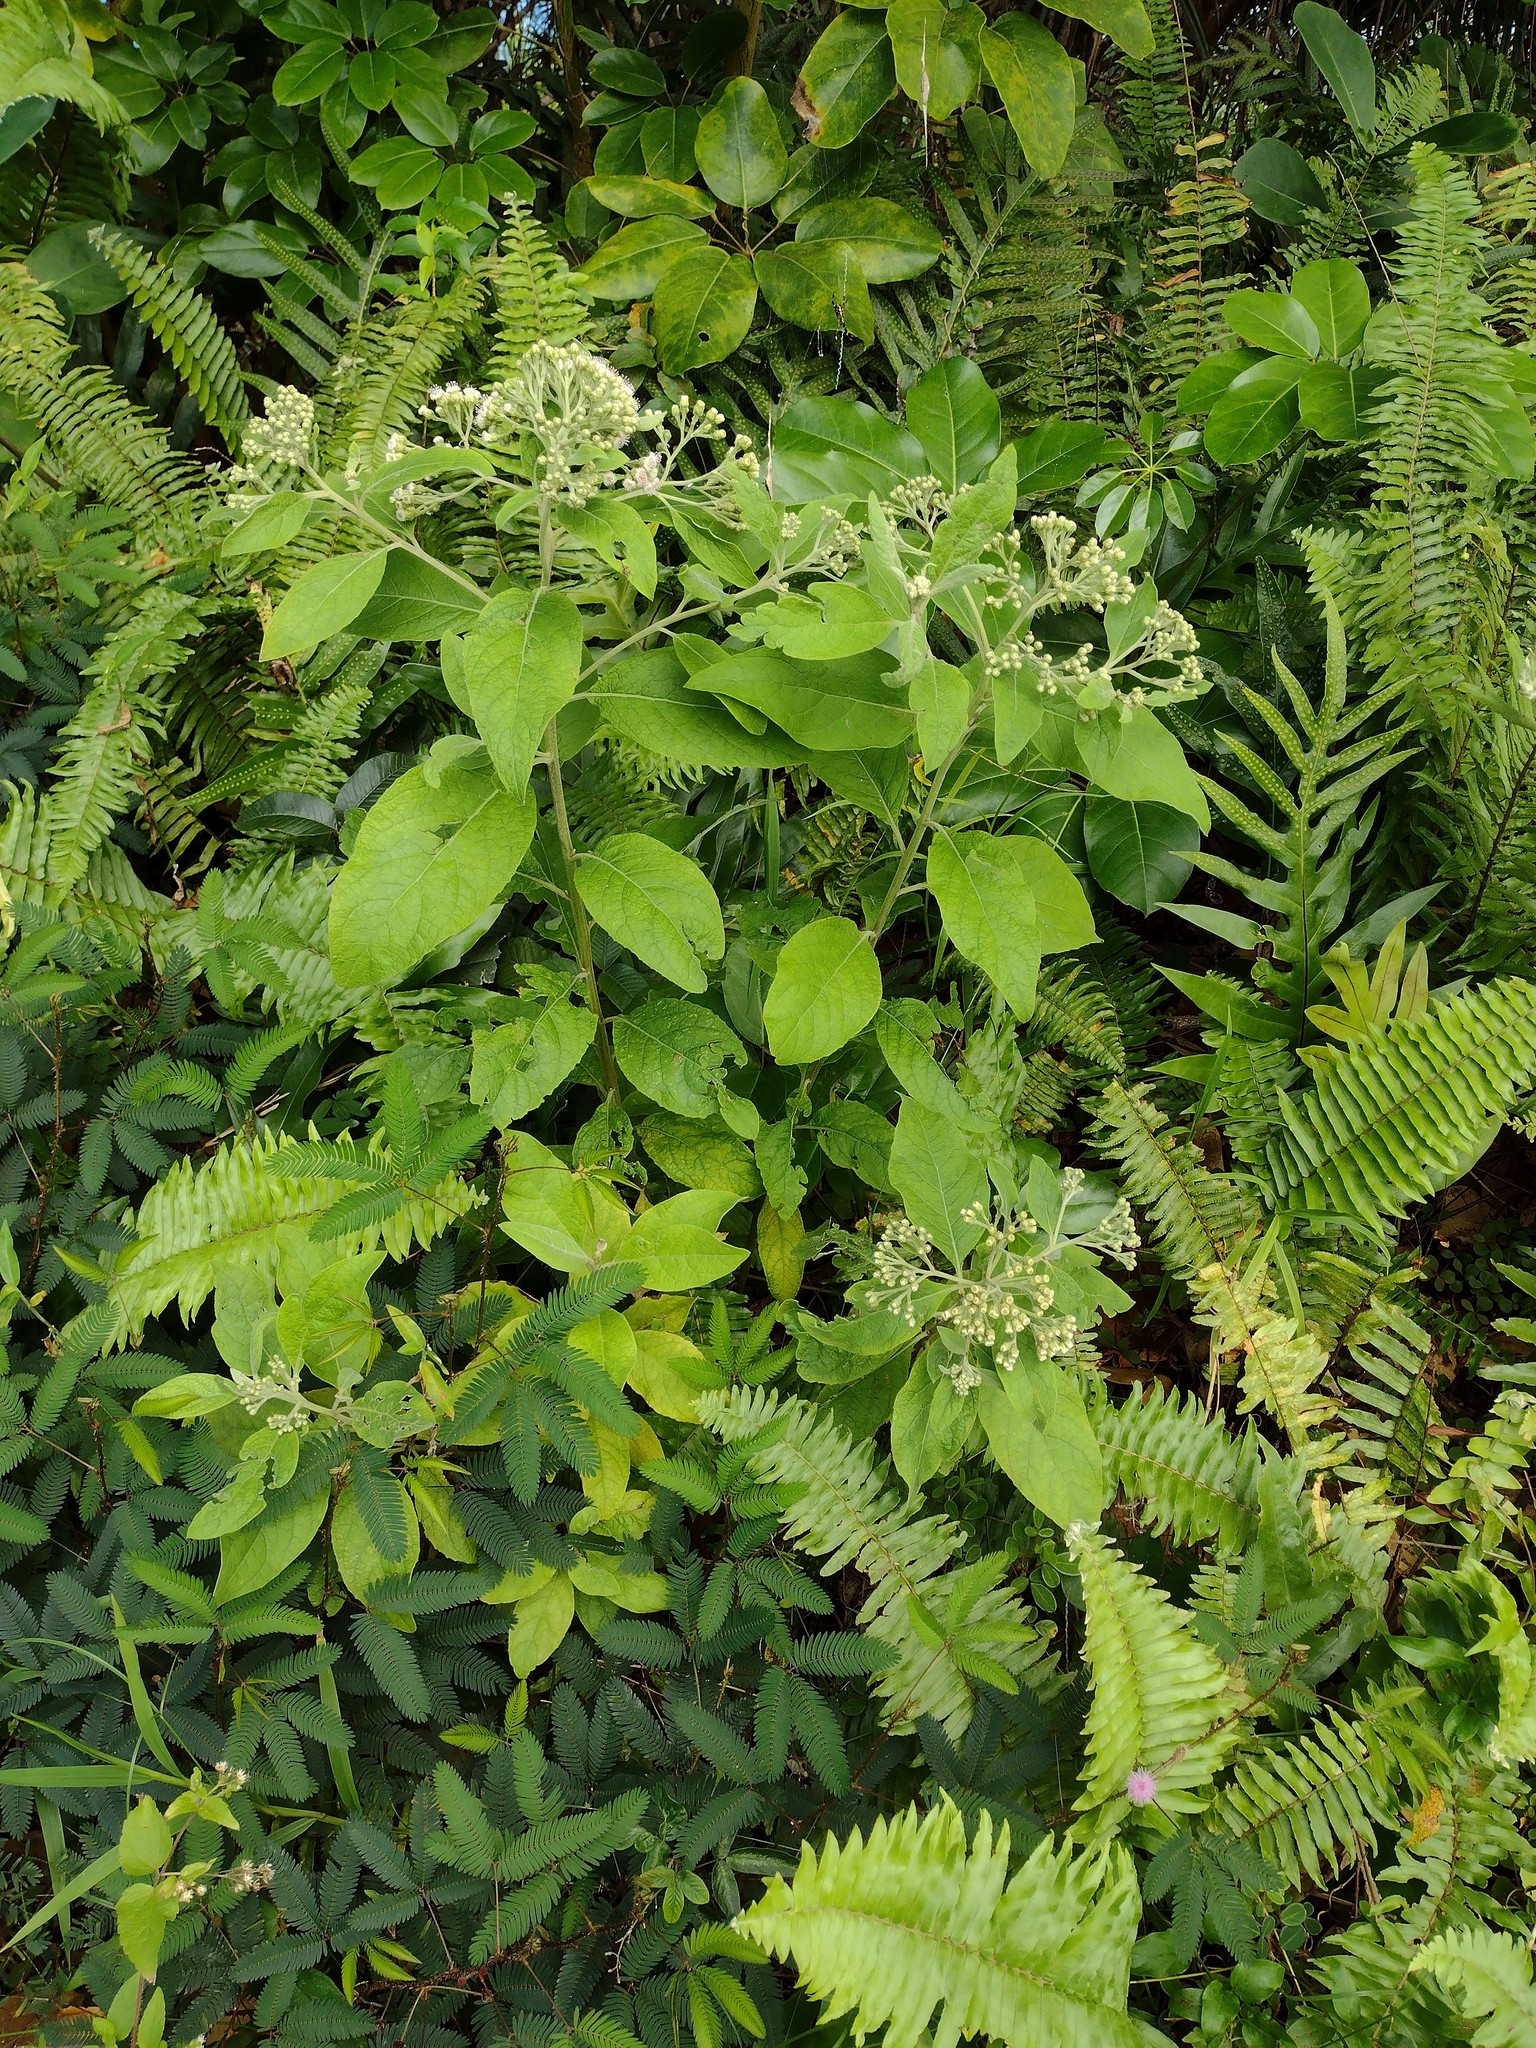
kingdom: Plantae
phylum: Tracheophyta
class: Magnoliopsida
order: Asterales
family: Asteraceae
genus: Pluchea
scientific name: Pluchea carolinensis
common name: Marsh fleabane
